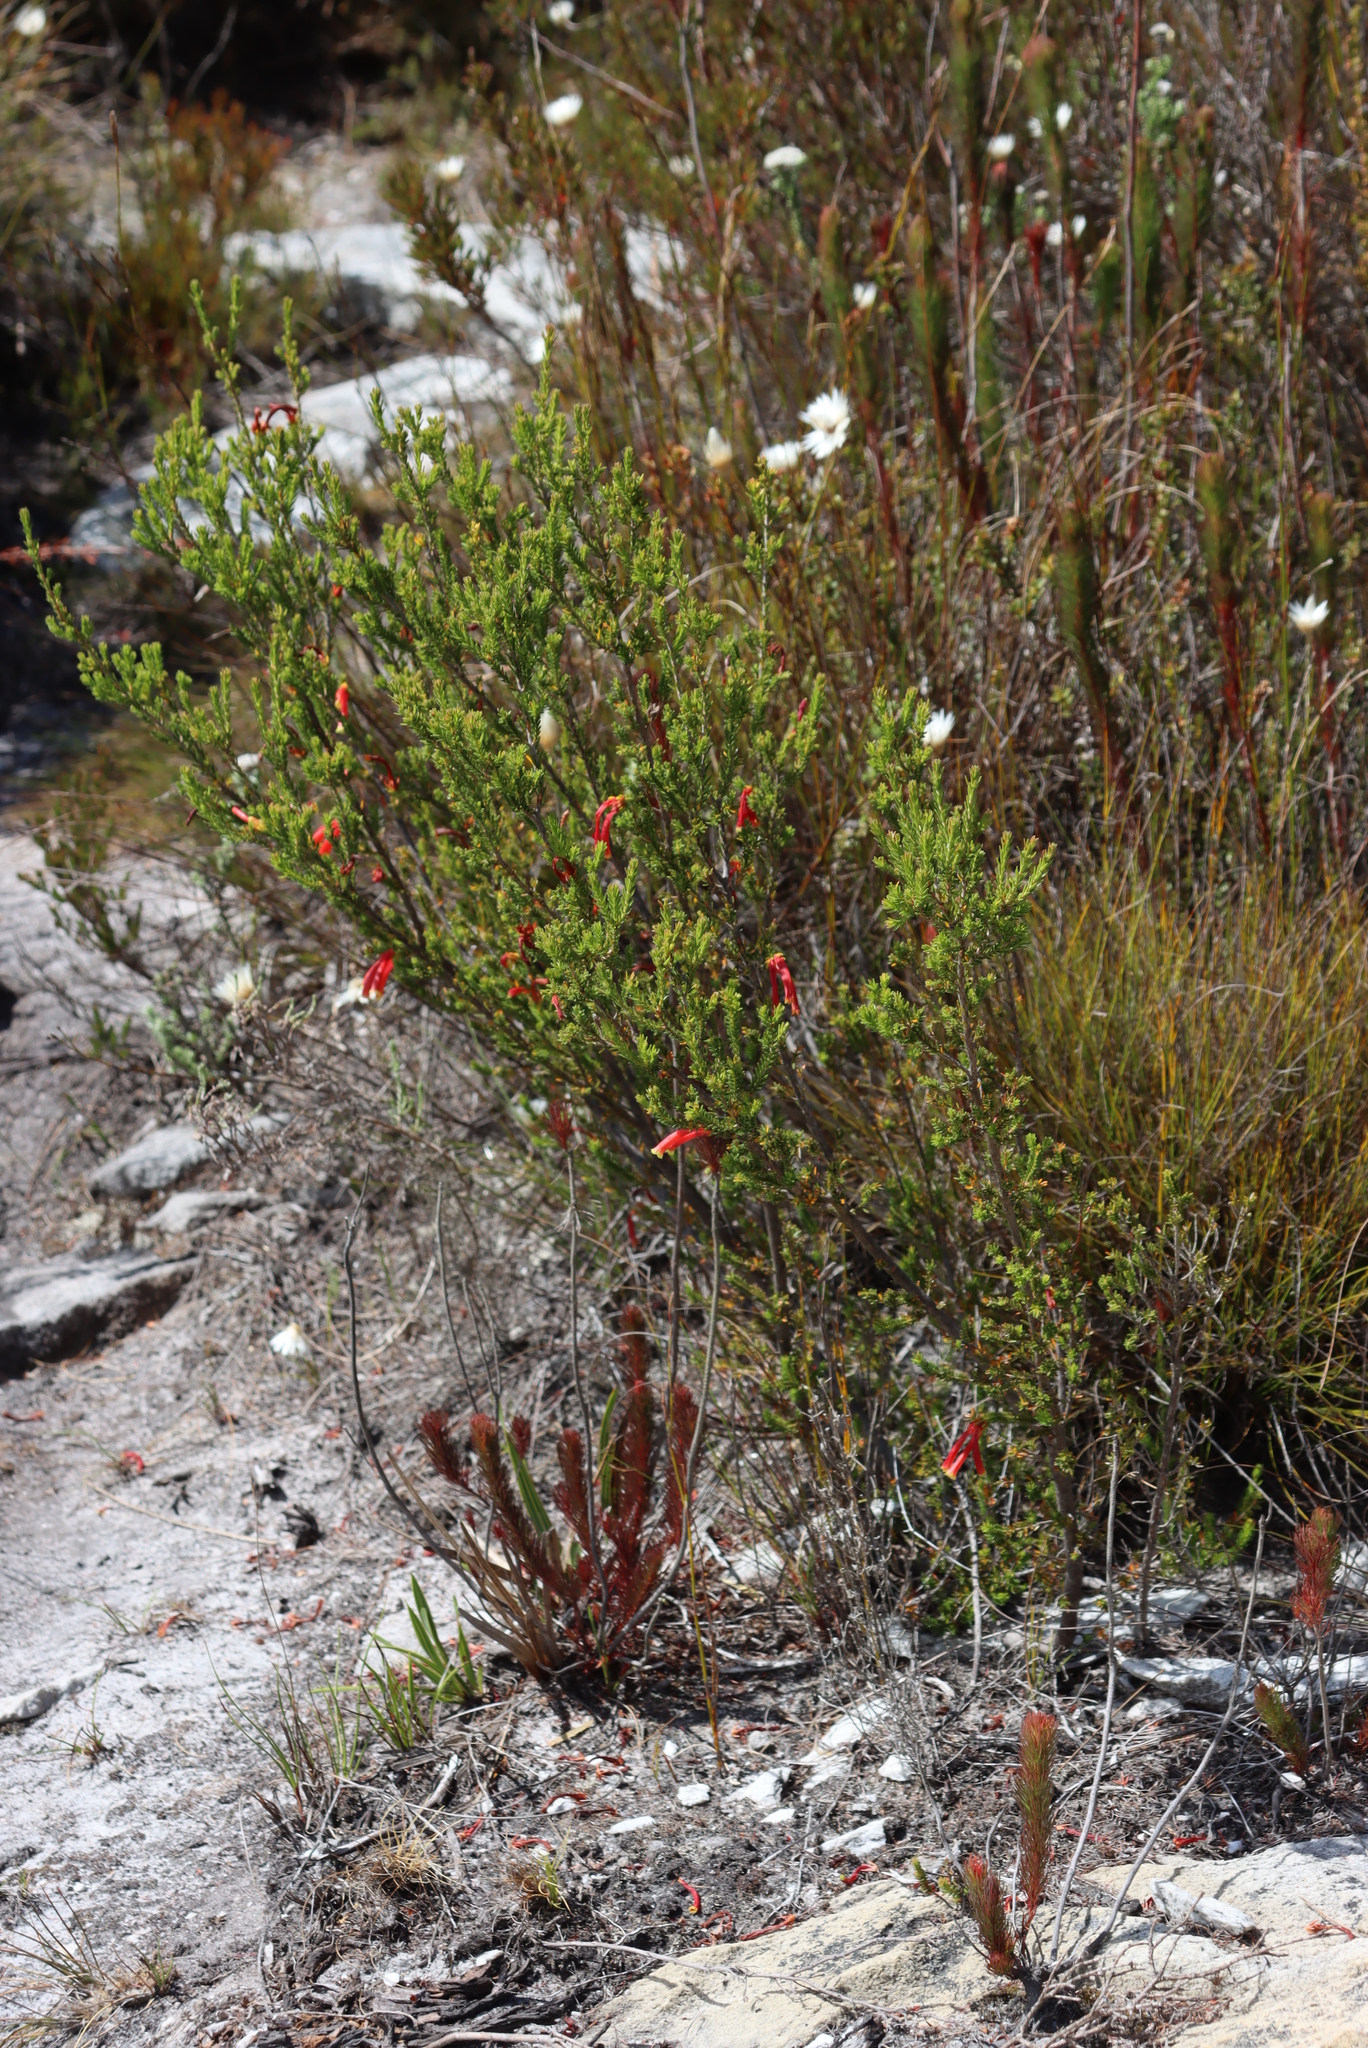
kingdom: Plantae
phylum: Tracheophyta
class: Magnoliopsida
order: Ericales
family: Ericaceae
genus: Erica
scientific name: Erica discolor
